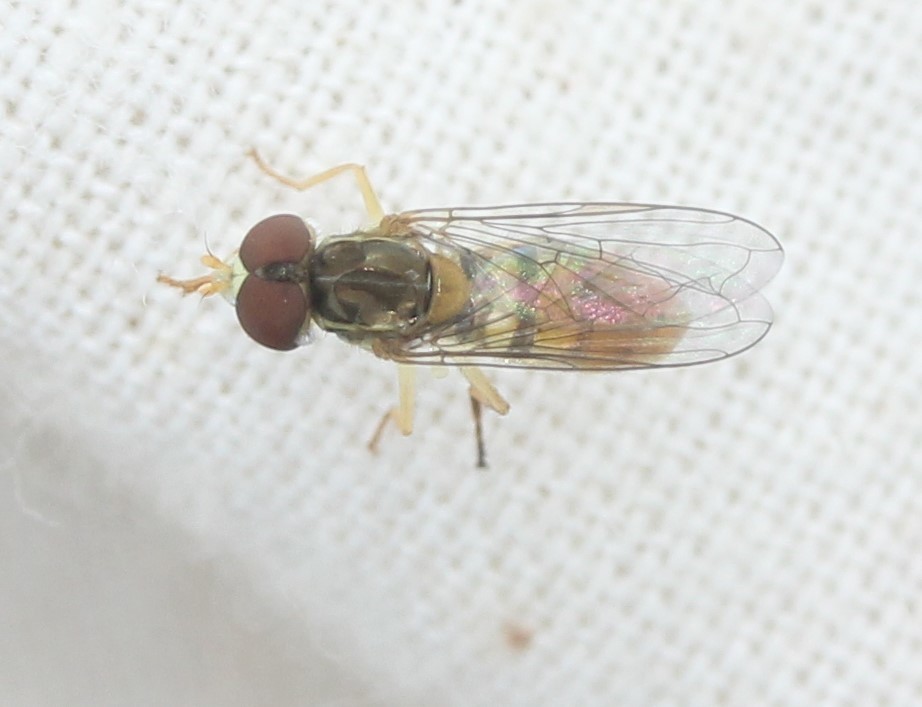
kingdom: Animalia
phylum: Arthropoda
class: Insecta
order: Diptera
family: Syrphidae
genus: Toxomerus
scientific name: Toxomerus marginatus
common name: Syrphid fly
